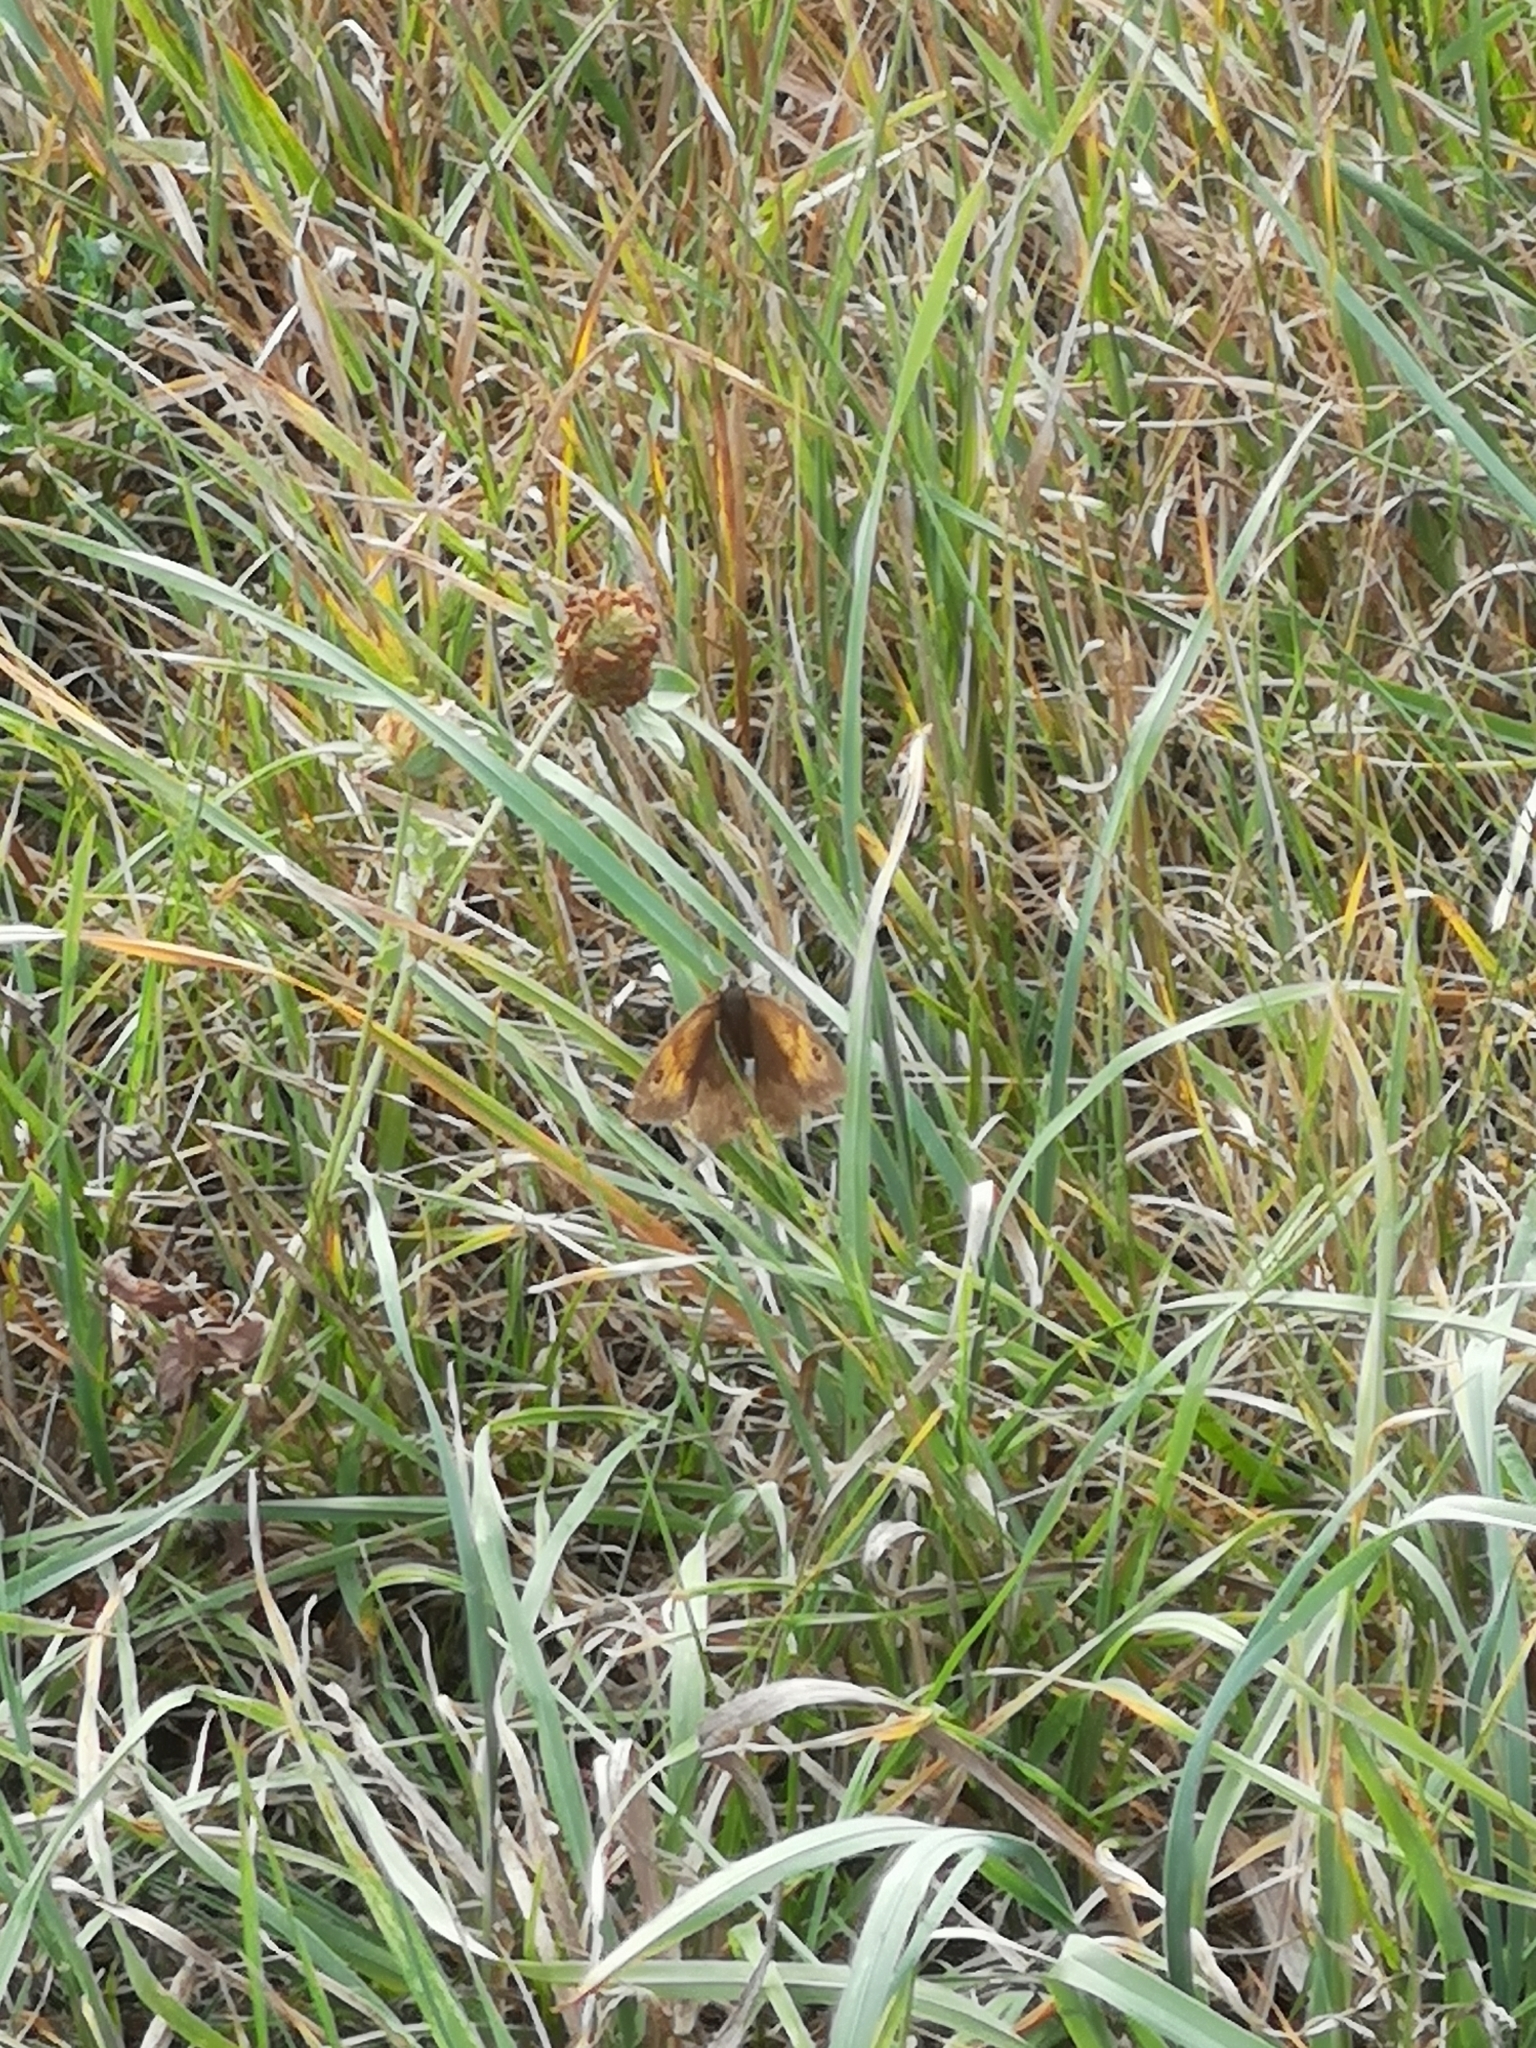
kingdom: Animalia
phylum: Arthropoda
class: Insecta
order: Lepidoptera
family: Nymphalidae
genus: Maniola
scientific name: Maniola jurtina
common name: Meadow brown
